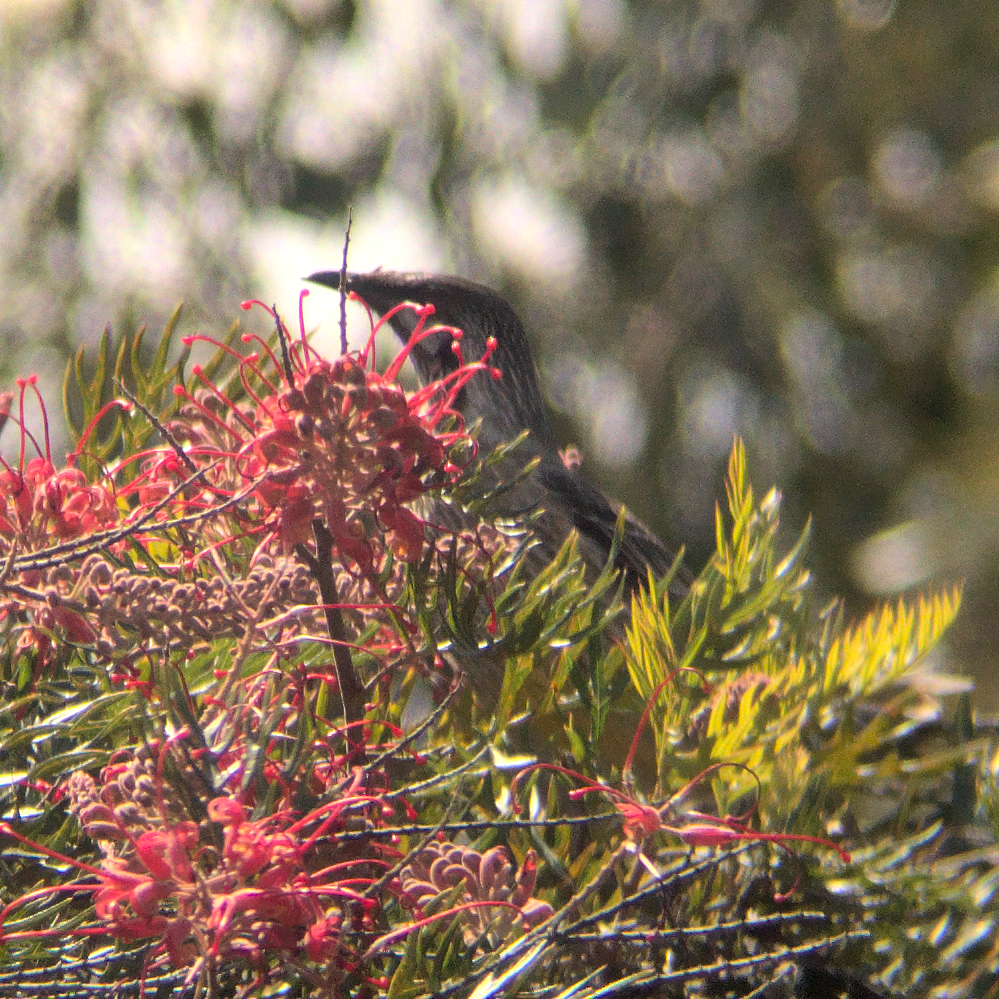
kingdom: Animalia
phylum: Chordata
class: Aves
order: Passeriformes
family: Meliphagidae
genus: Anthochaera
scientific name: Anthochaera carunculata
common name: Red wattlebird
